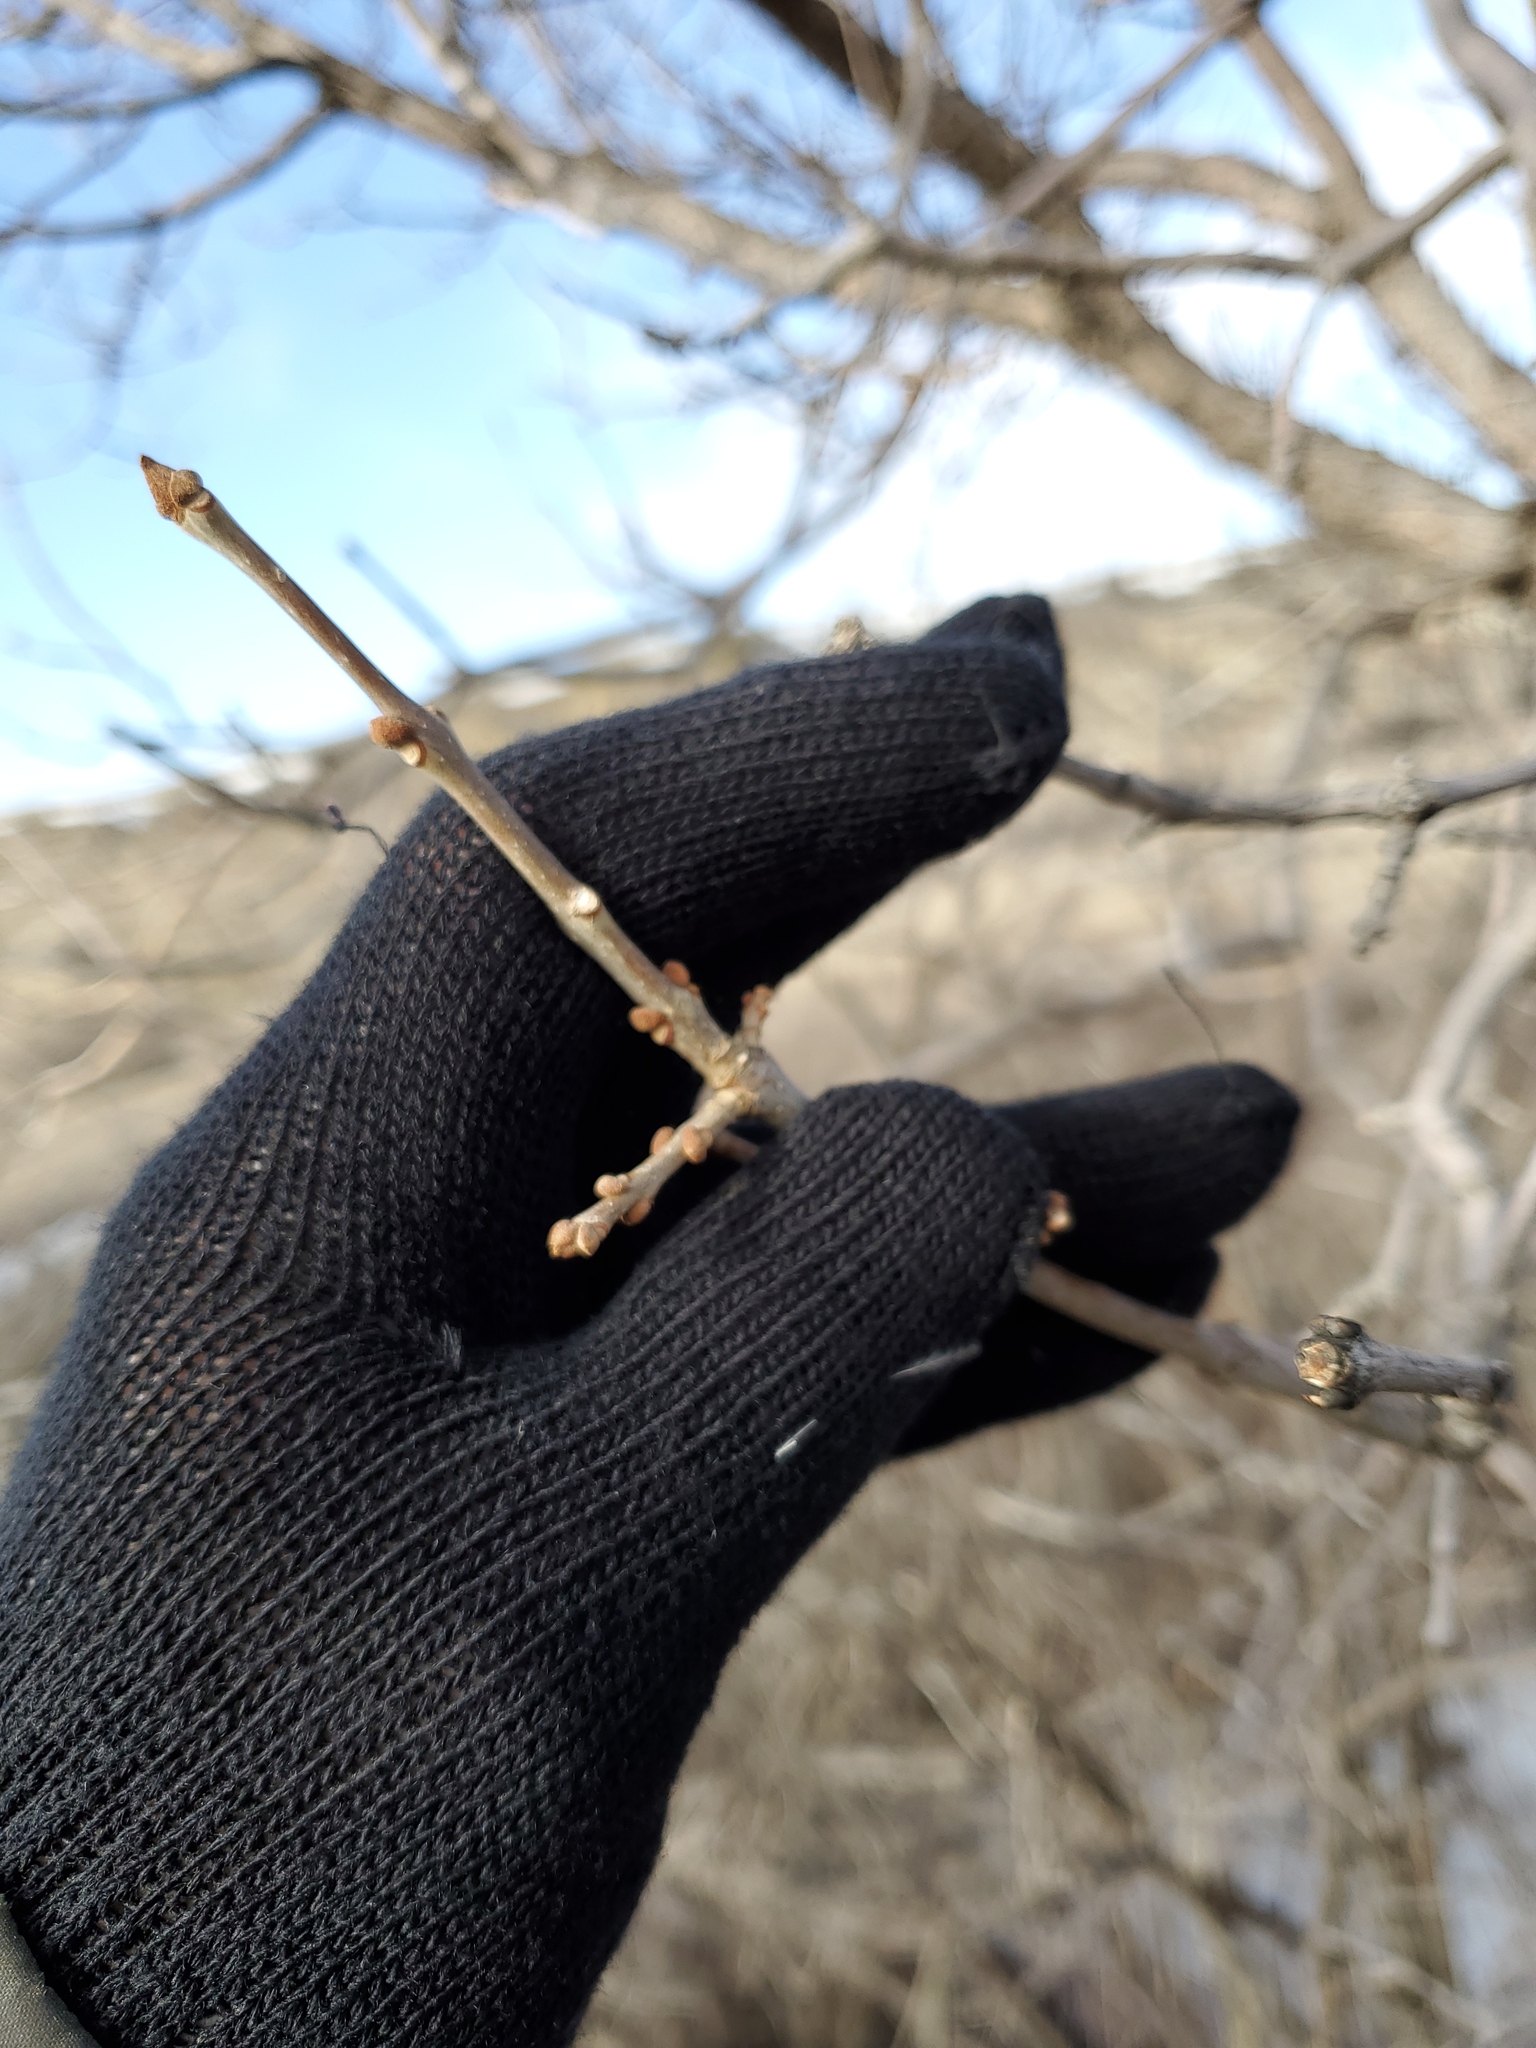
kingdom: Plantae
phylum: Tracheophyta
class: Magnoliopsida
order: Lamiales
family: Oleaceae
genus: Fraxinus
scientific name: Fraxinus pennsylvanica
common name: Green ash
